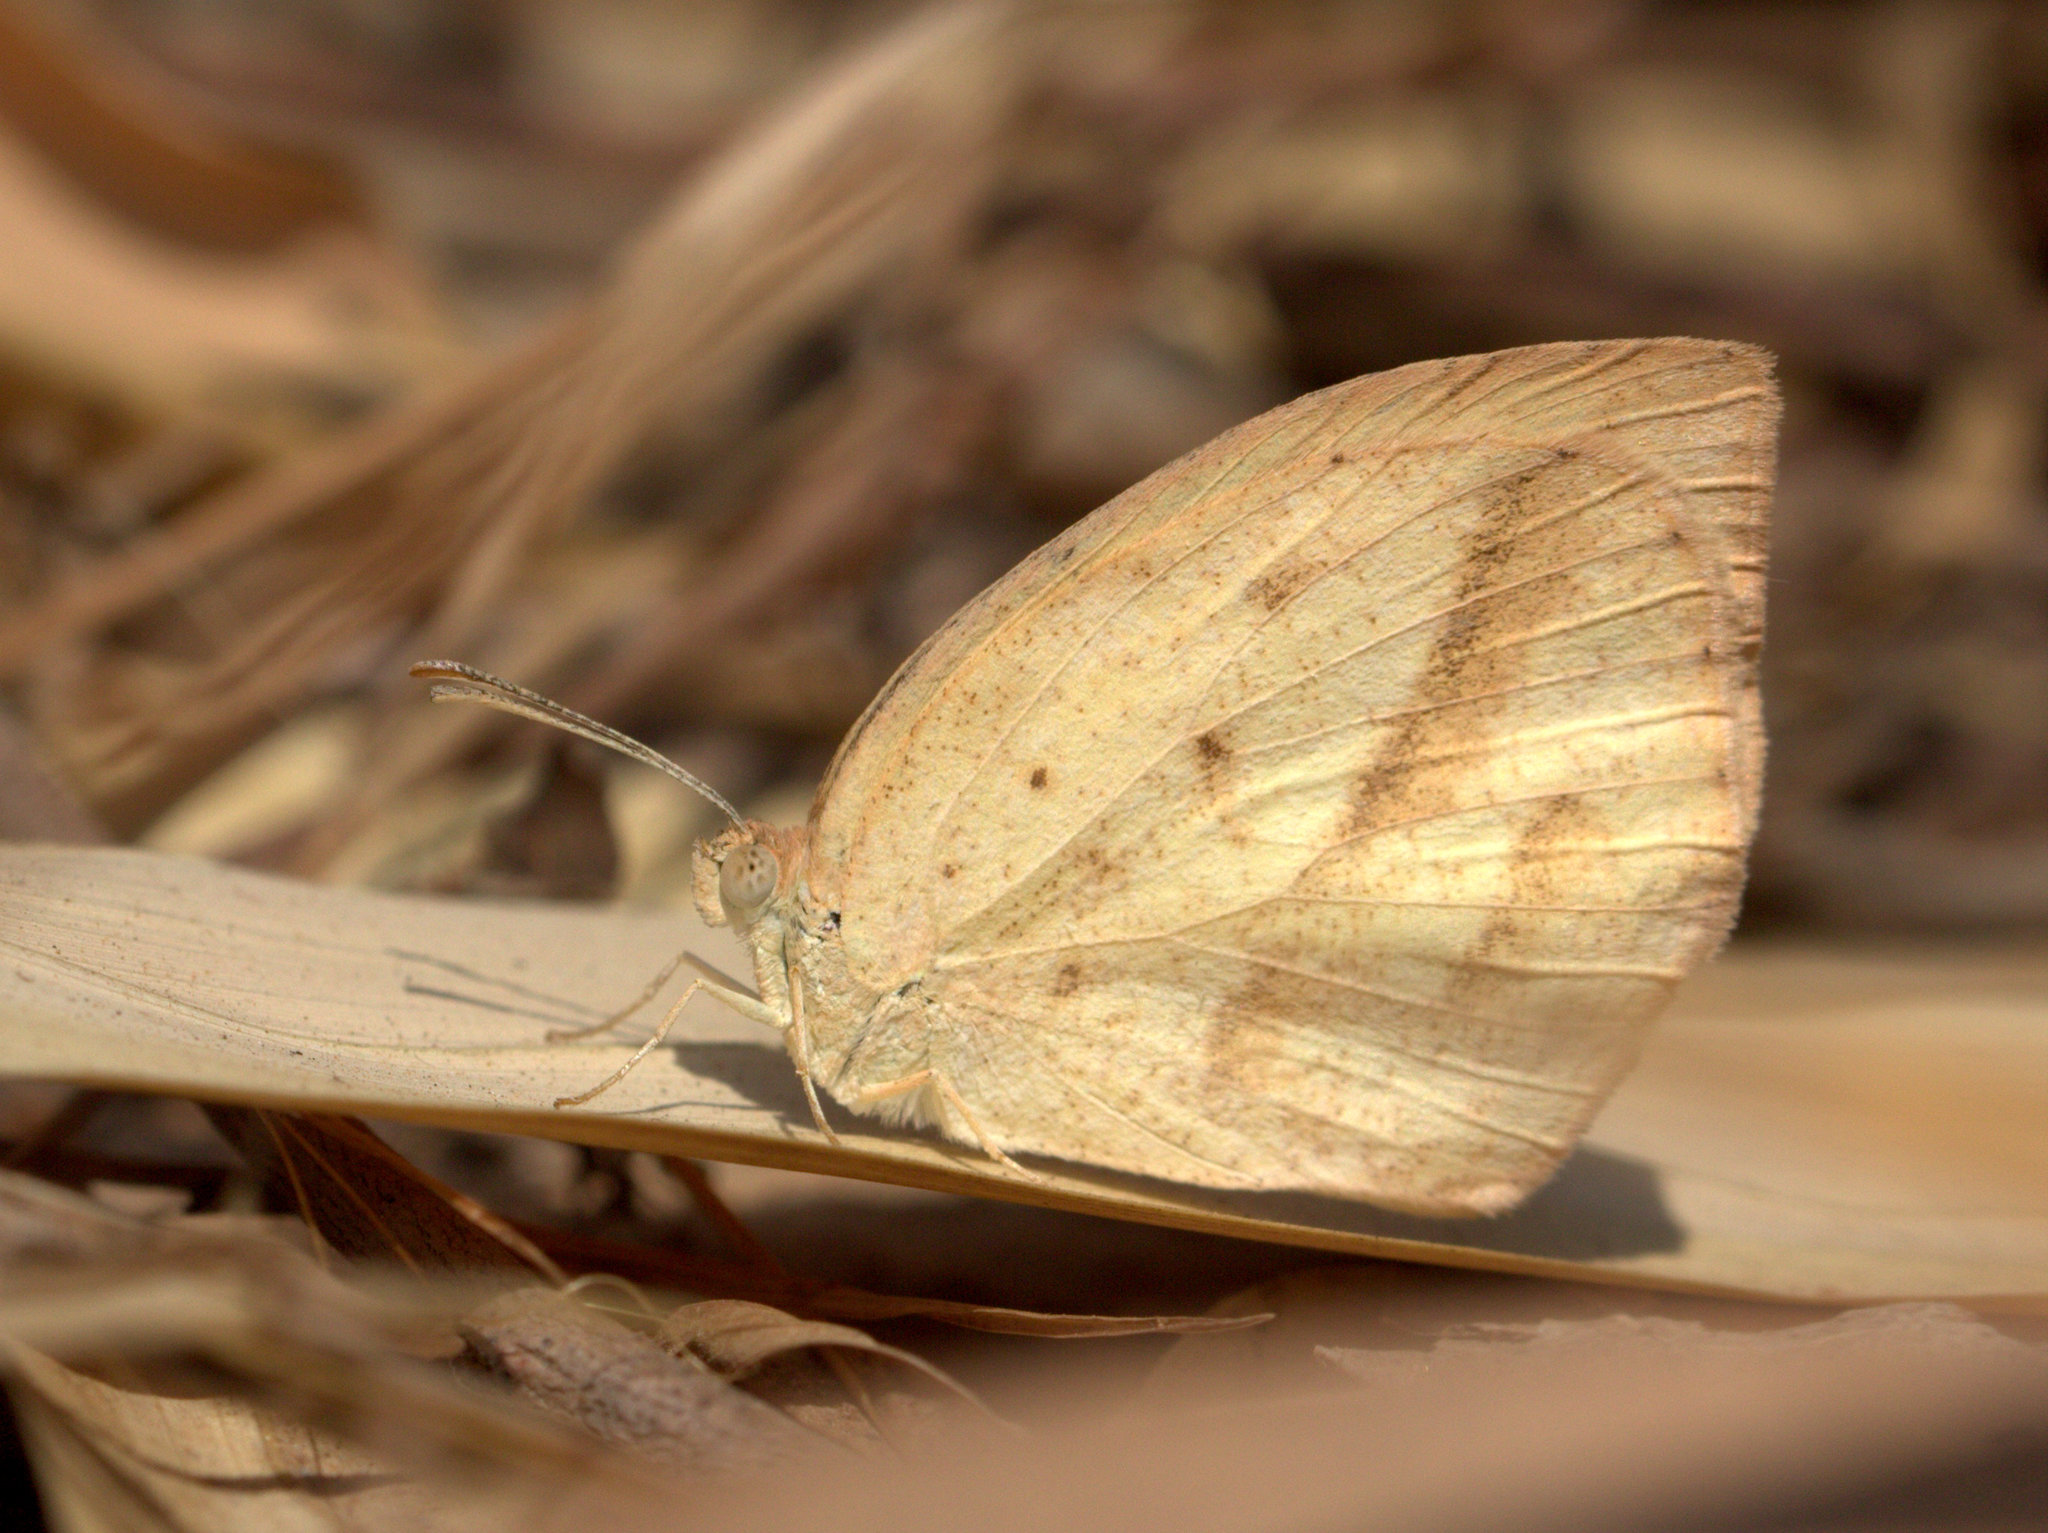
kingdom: Animalia
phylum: Arthropoda
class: Insecta
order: Lepidoptera
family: Pieridae
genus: Eurema
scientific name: Eurema laeta
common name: Spotless grass yellow
